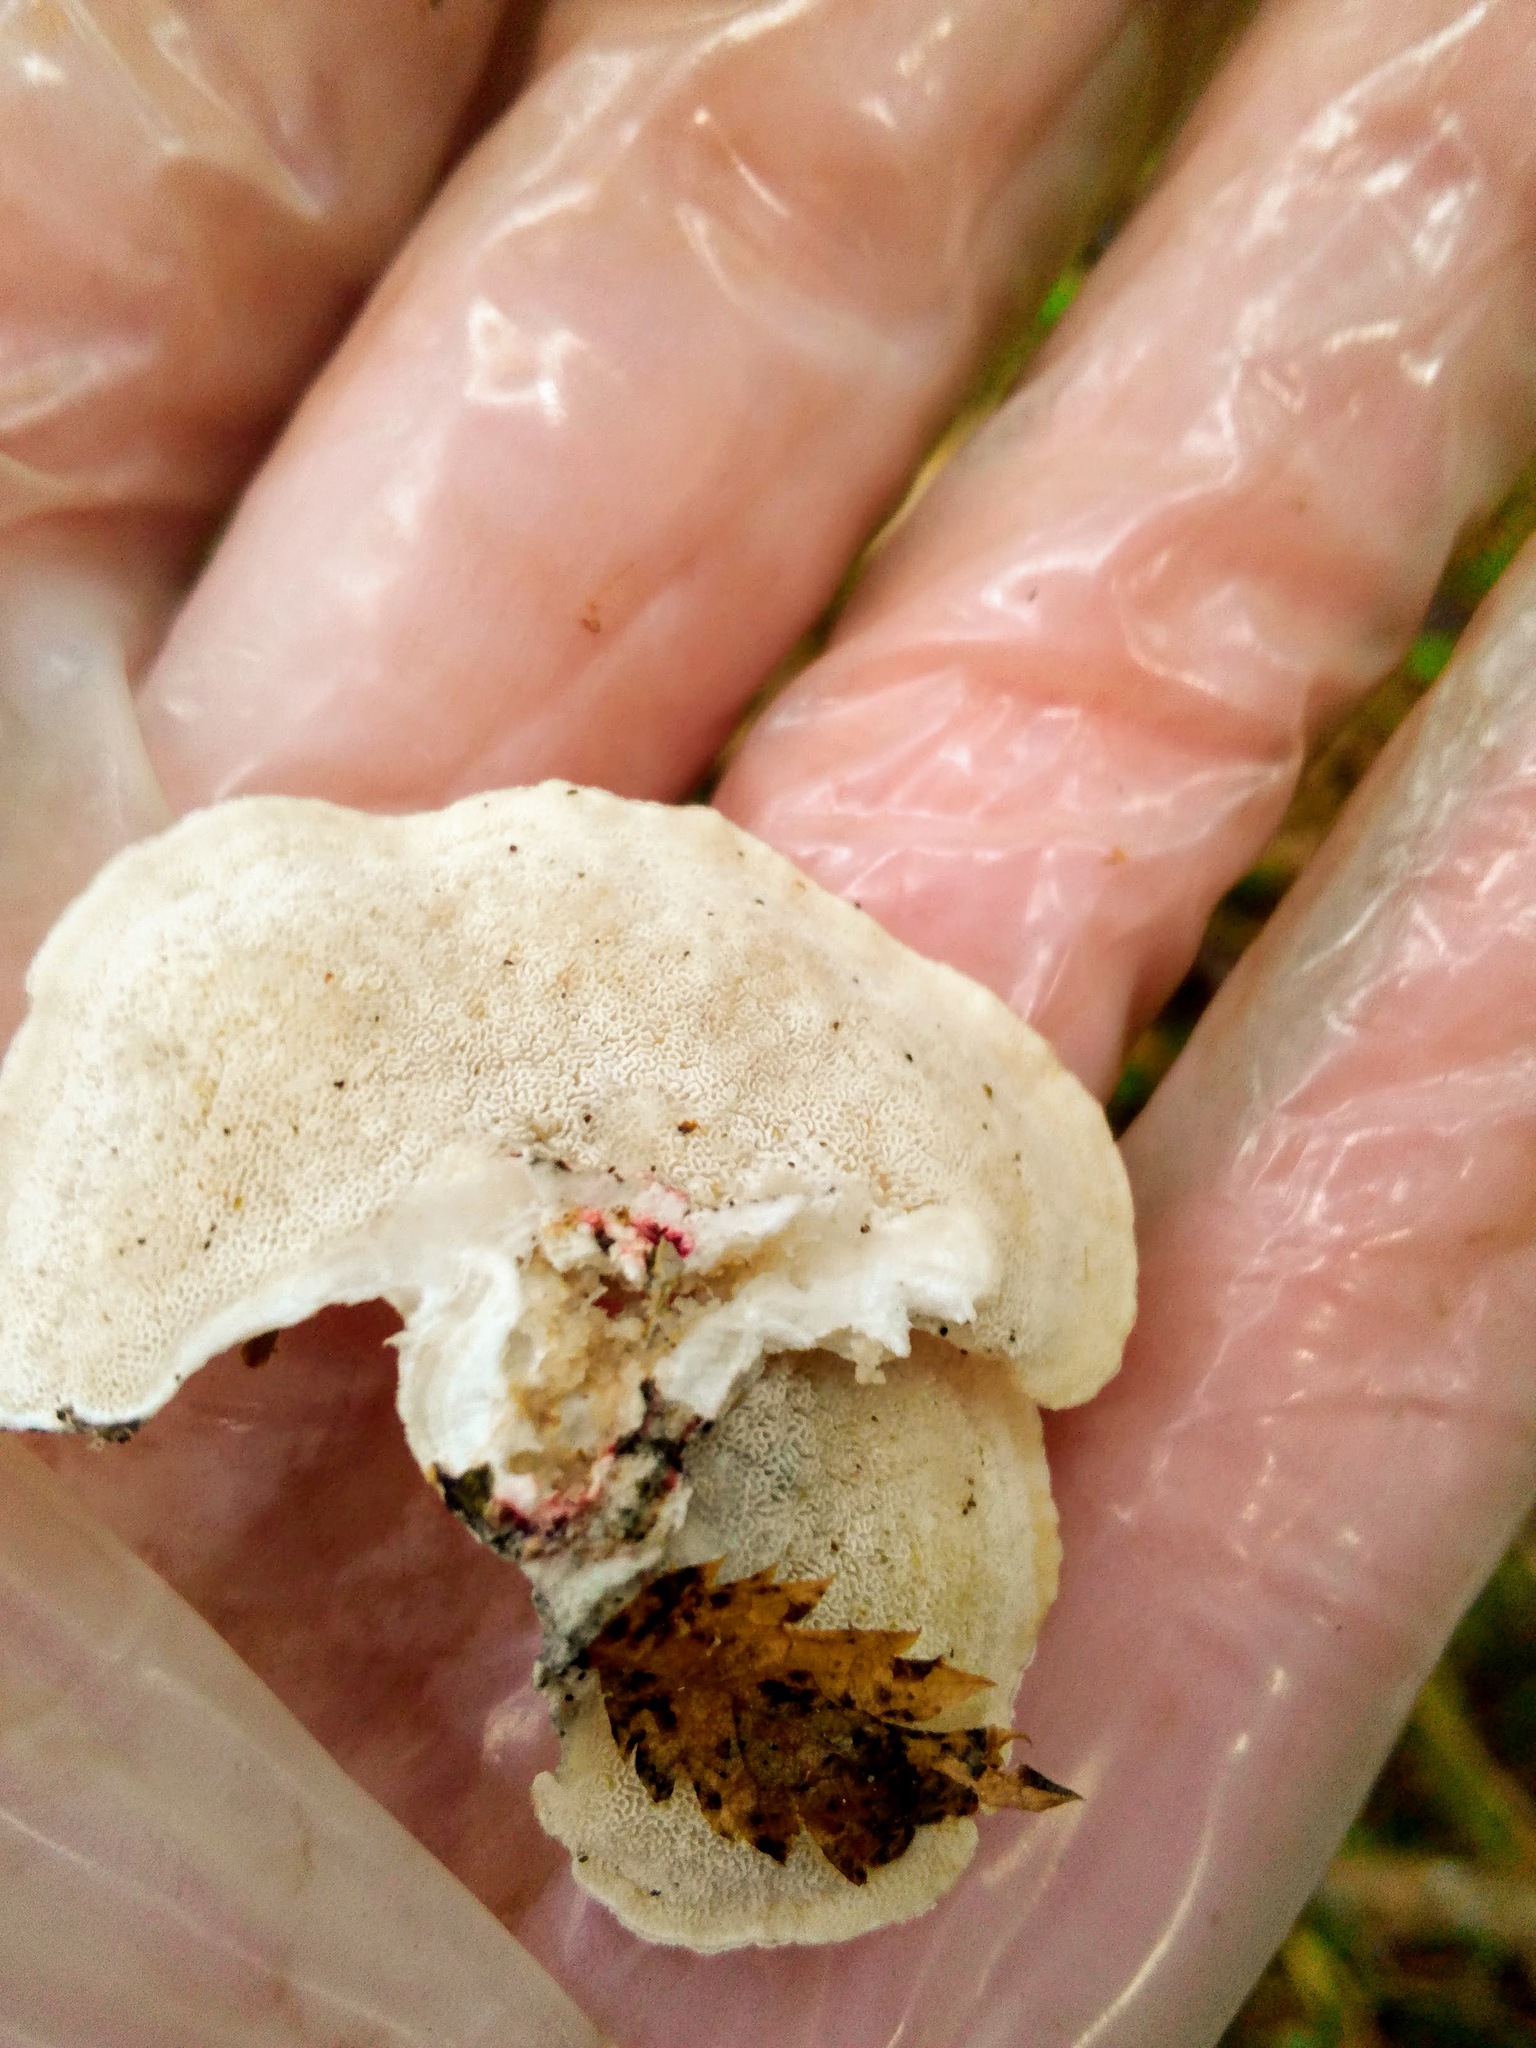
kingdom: Fungi
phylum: Basidiomycota
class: Agaricomycetes
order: Polyporales
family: Incrustoporiaceae
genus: Tyromyces
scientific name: Tyromyces chioneus
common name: White cheese polypore
